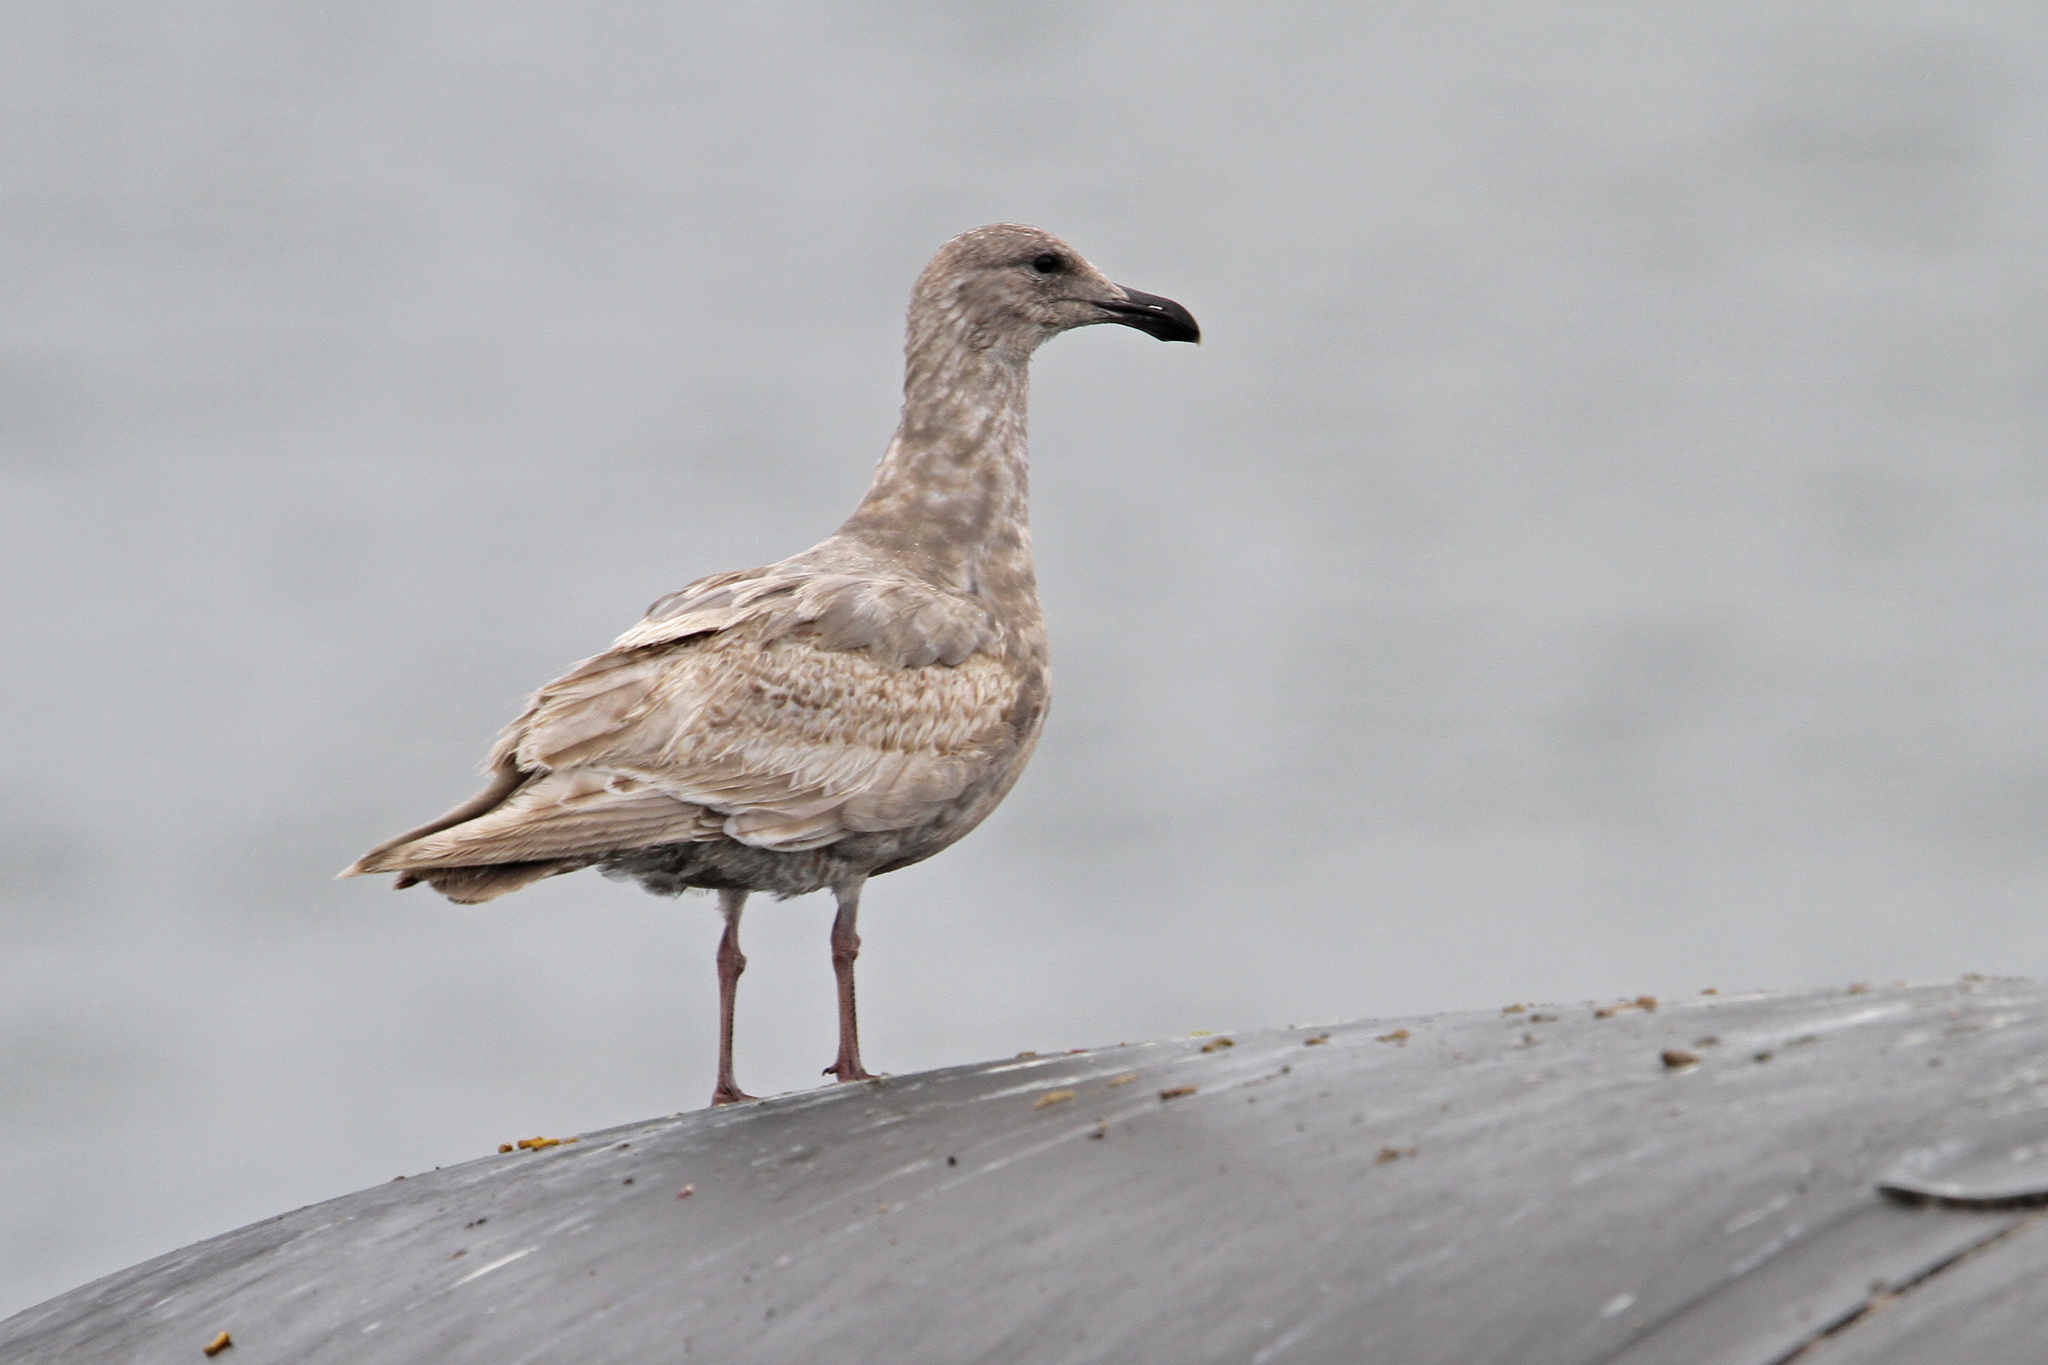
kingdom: Animalia
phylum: Chordata
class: Aves
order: Charadriiformes
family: Laridae
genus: Larus
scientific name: Larus glaucescens
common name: Glaucous-winged gull
